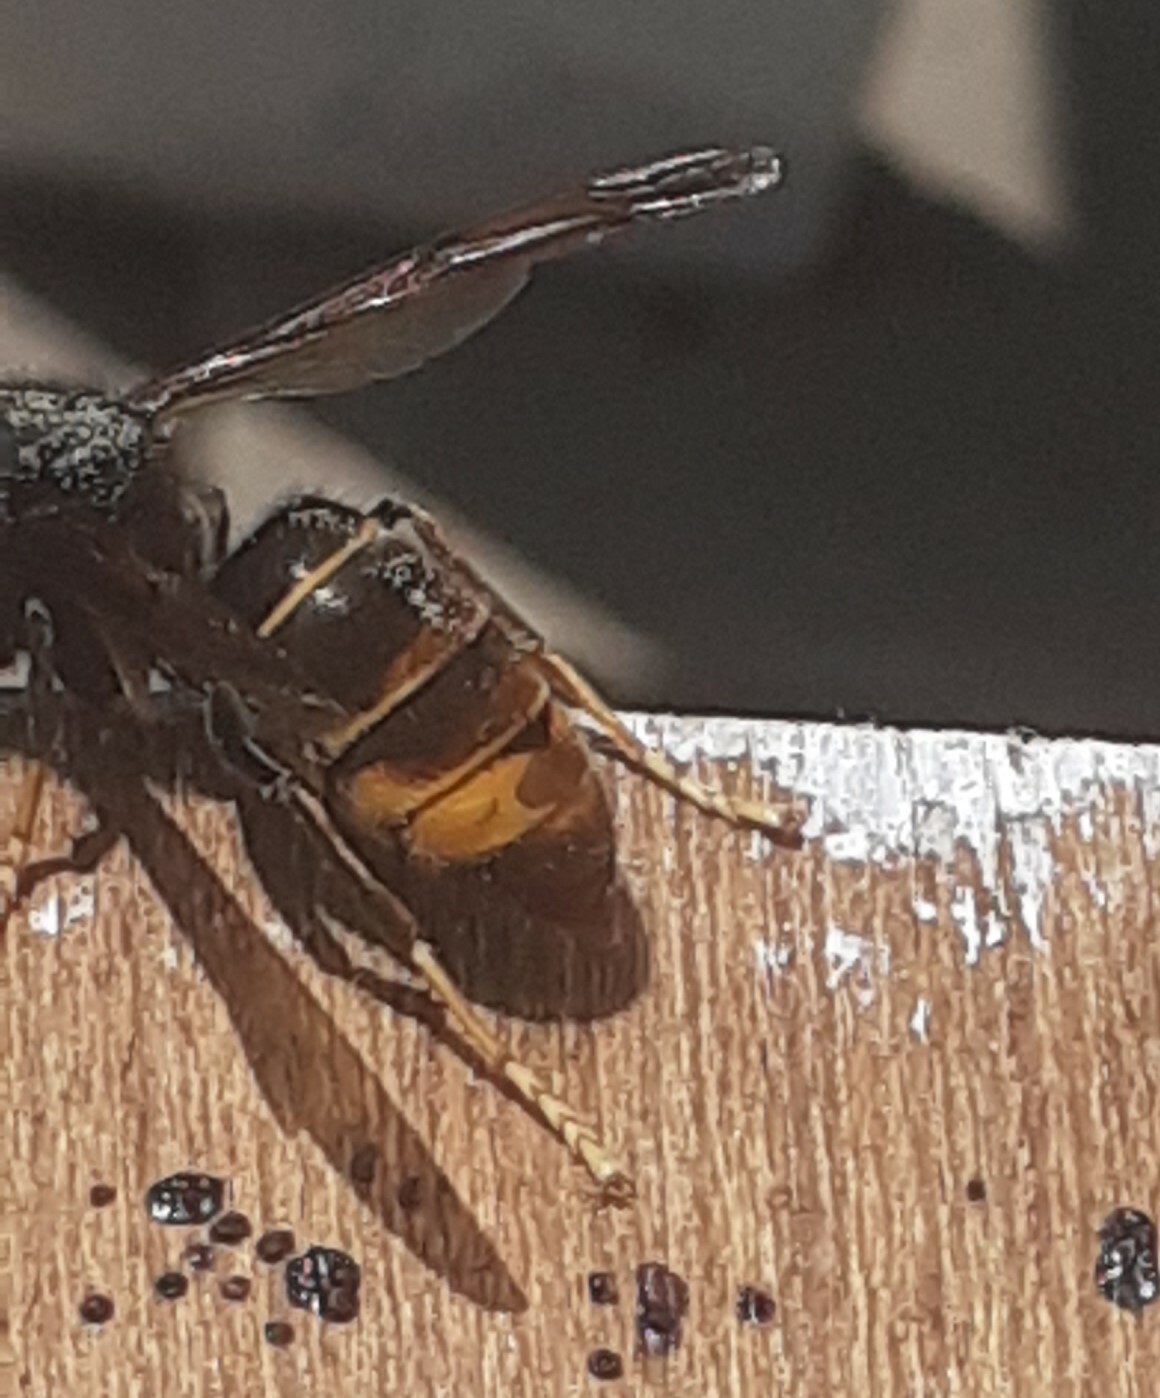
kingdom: Animalia
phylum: Arthropoda
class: Insecta
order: Hymenoptera
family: Vespidae
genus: Vespa
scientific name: Vespa velutina
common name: Asian hornet
